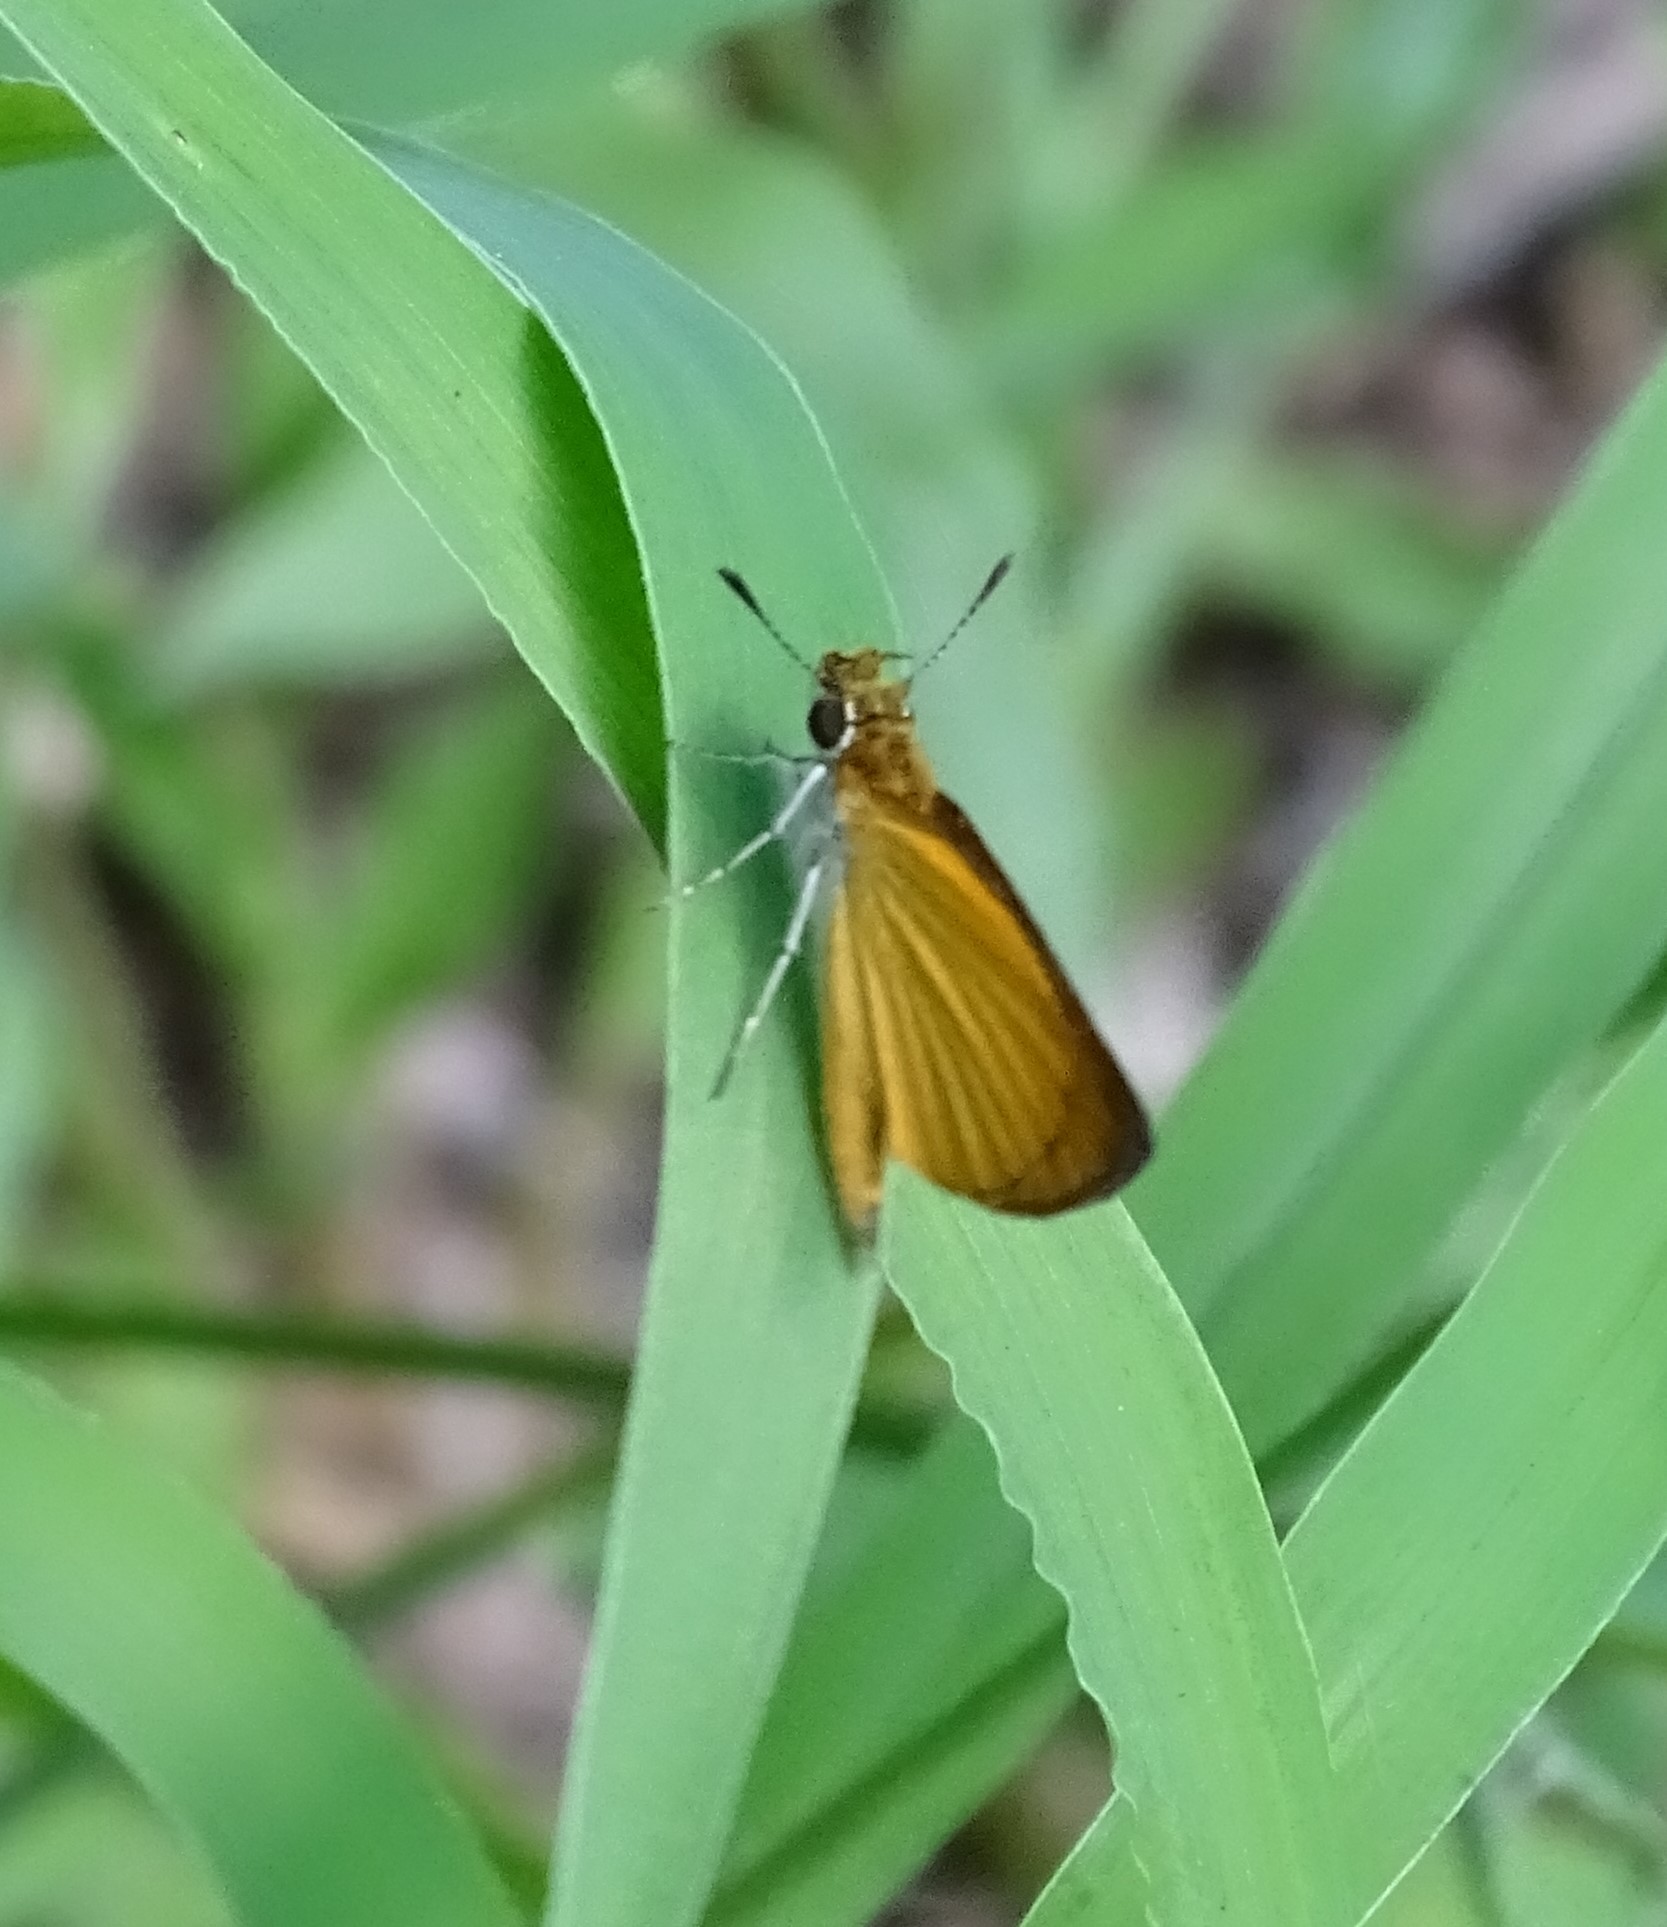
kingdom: Animalia
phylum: Arthropoda
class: Insecta
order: Lepidoptera
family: Hesperiidae
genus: Ancyloxypha
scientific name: Ancyloxypha numitor
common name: Least skipper
